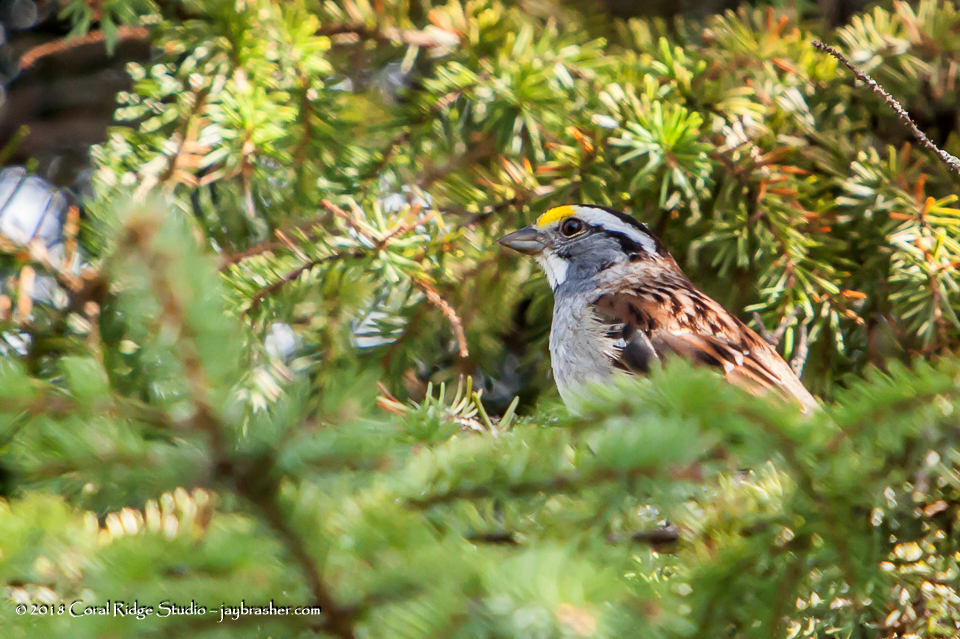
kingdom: Animalia
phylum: Chordata
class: Aves
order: Passeriformes
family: Passerellidae
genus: Zonotrichia
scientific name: Zonotrichia albicollis
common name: White-throated sparrow
